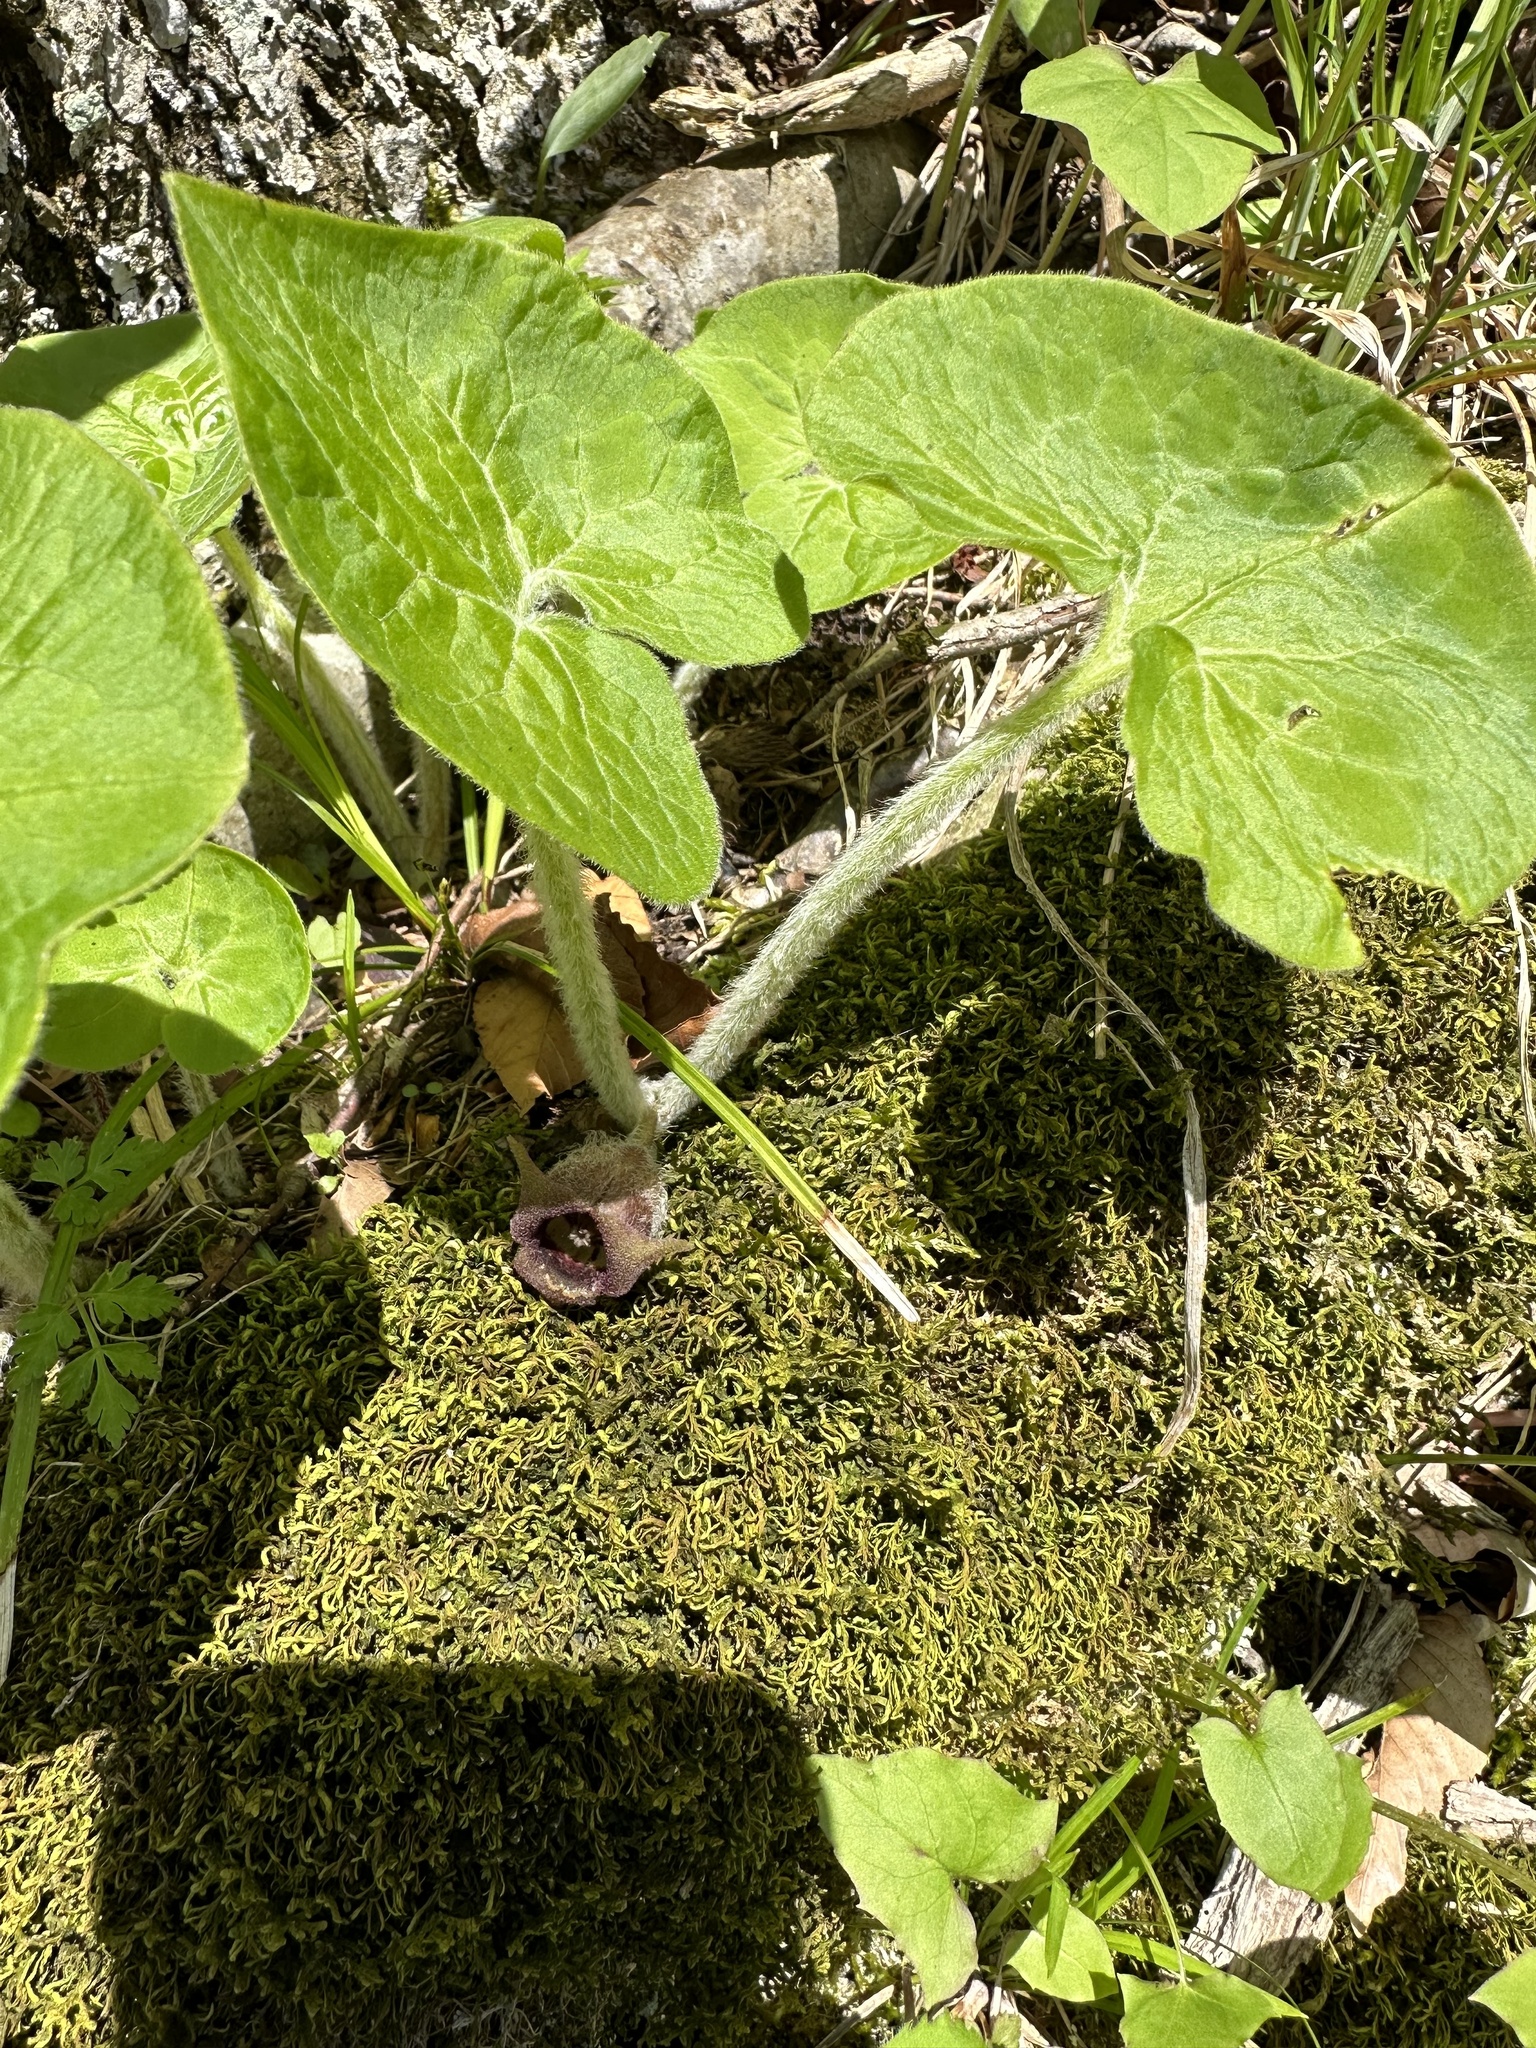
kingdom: Plantae
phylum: Tracheophyta
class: Magnoliopsida
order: Piperales
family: Aristolochiaceae
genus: Asarum
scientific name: Asarum canadense
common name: Wild ginger
